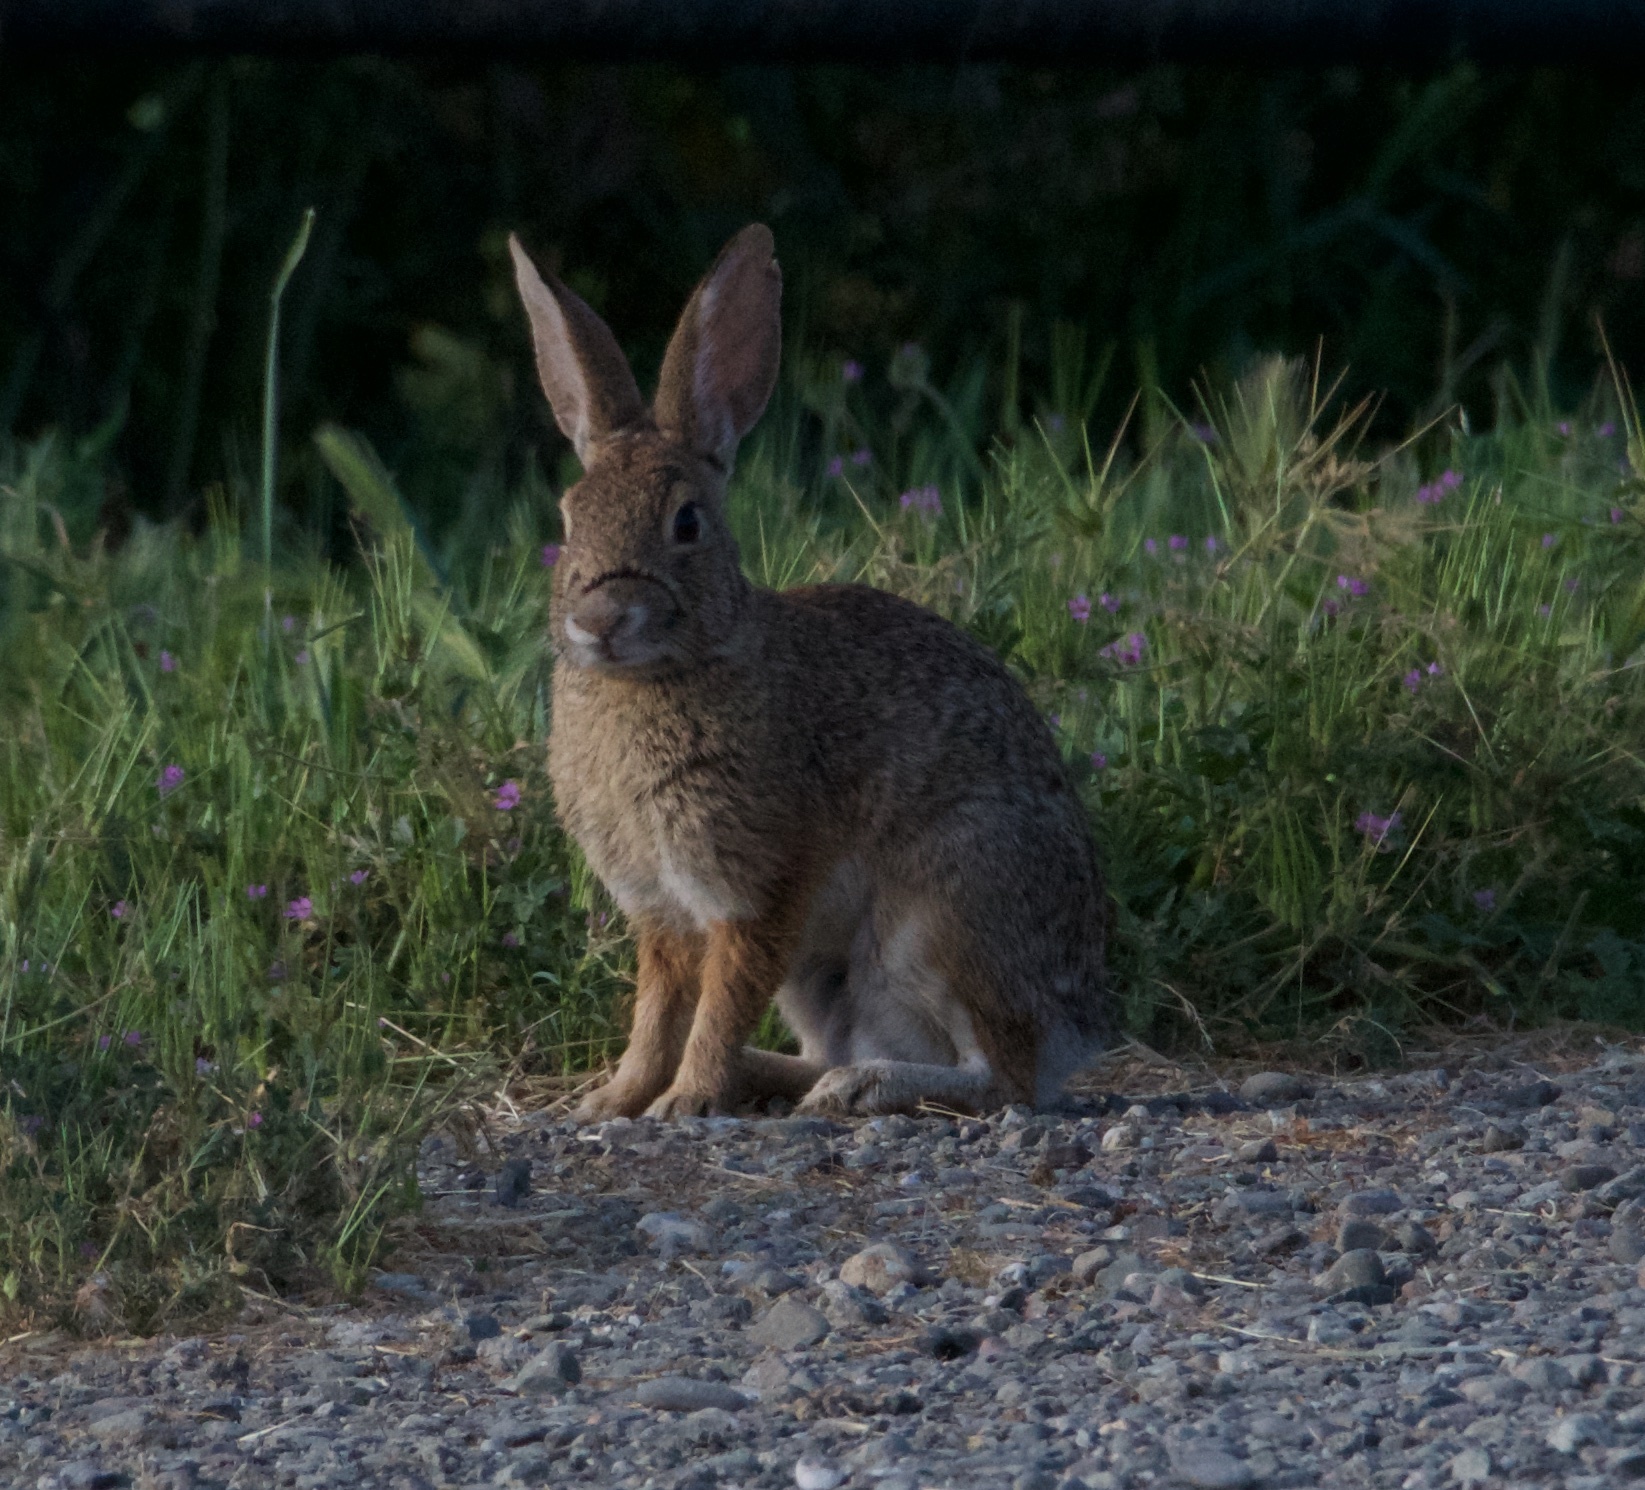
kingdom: Animalia
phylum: Chordata
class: Mammalia
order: Lagomorpha
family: Leporidae
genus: Sylvilagus
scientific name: Sylvilagus audubonii
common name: Desert cottontail
